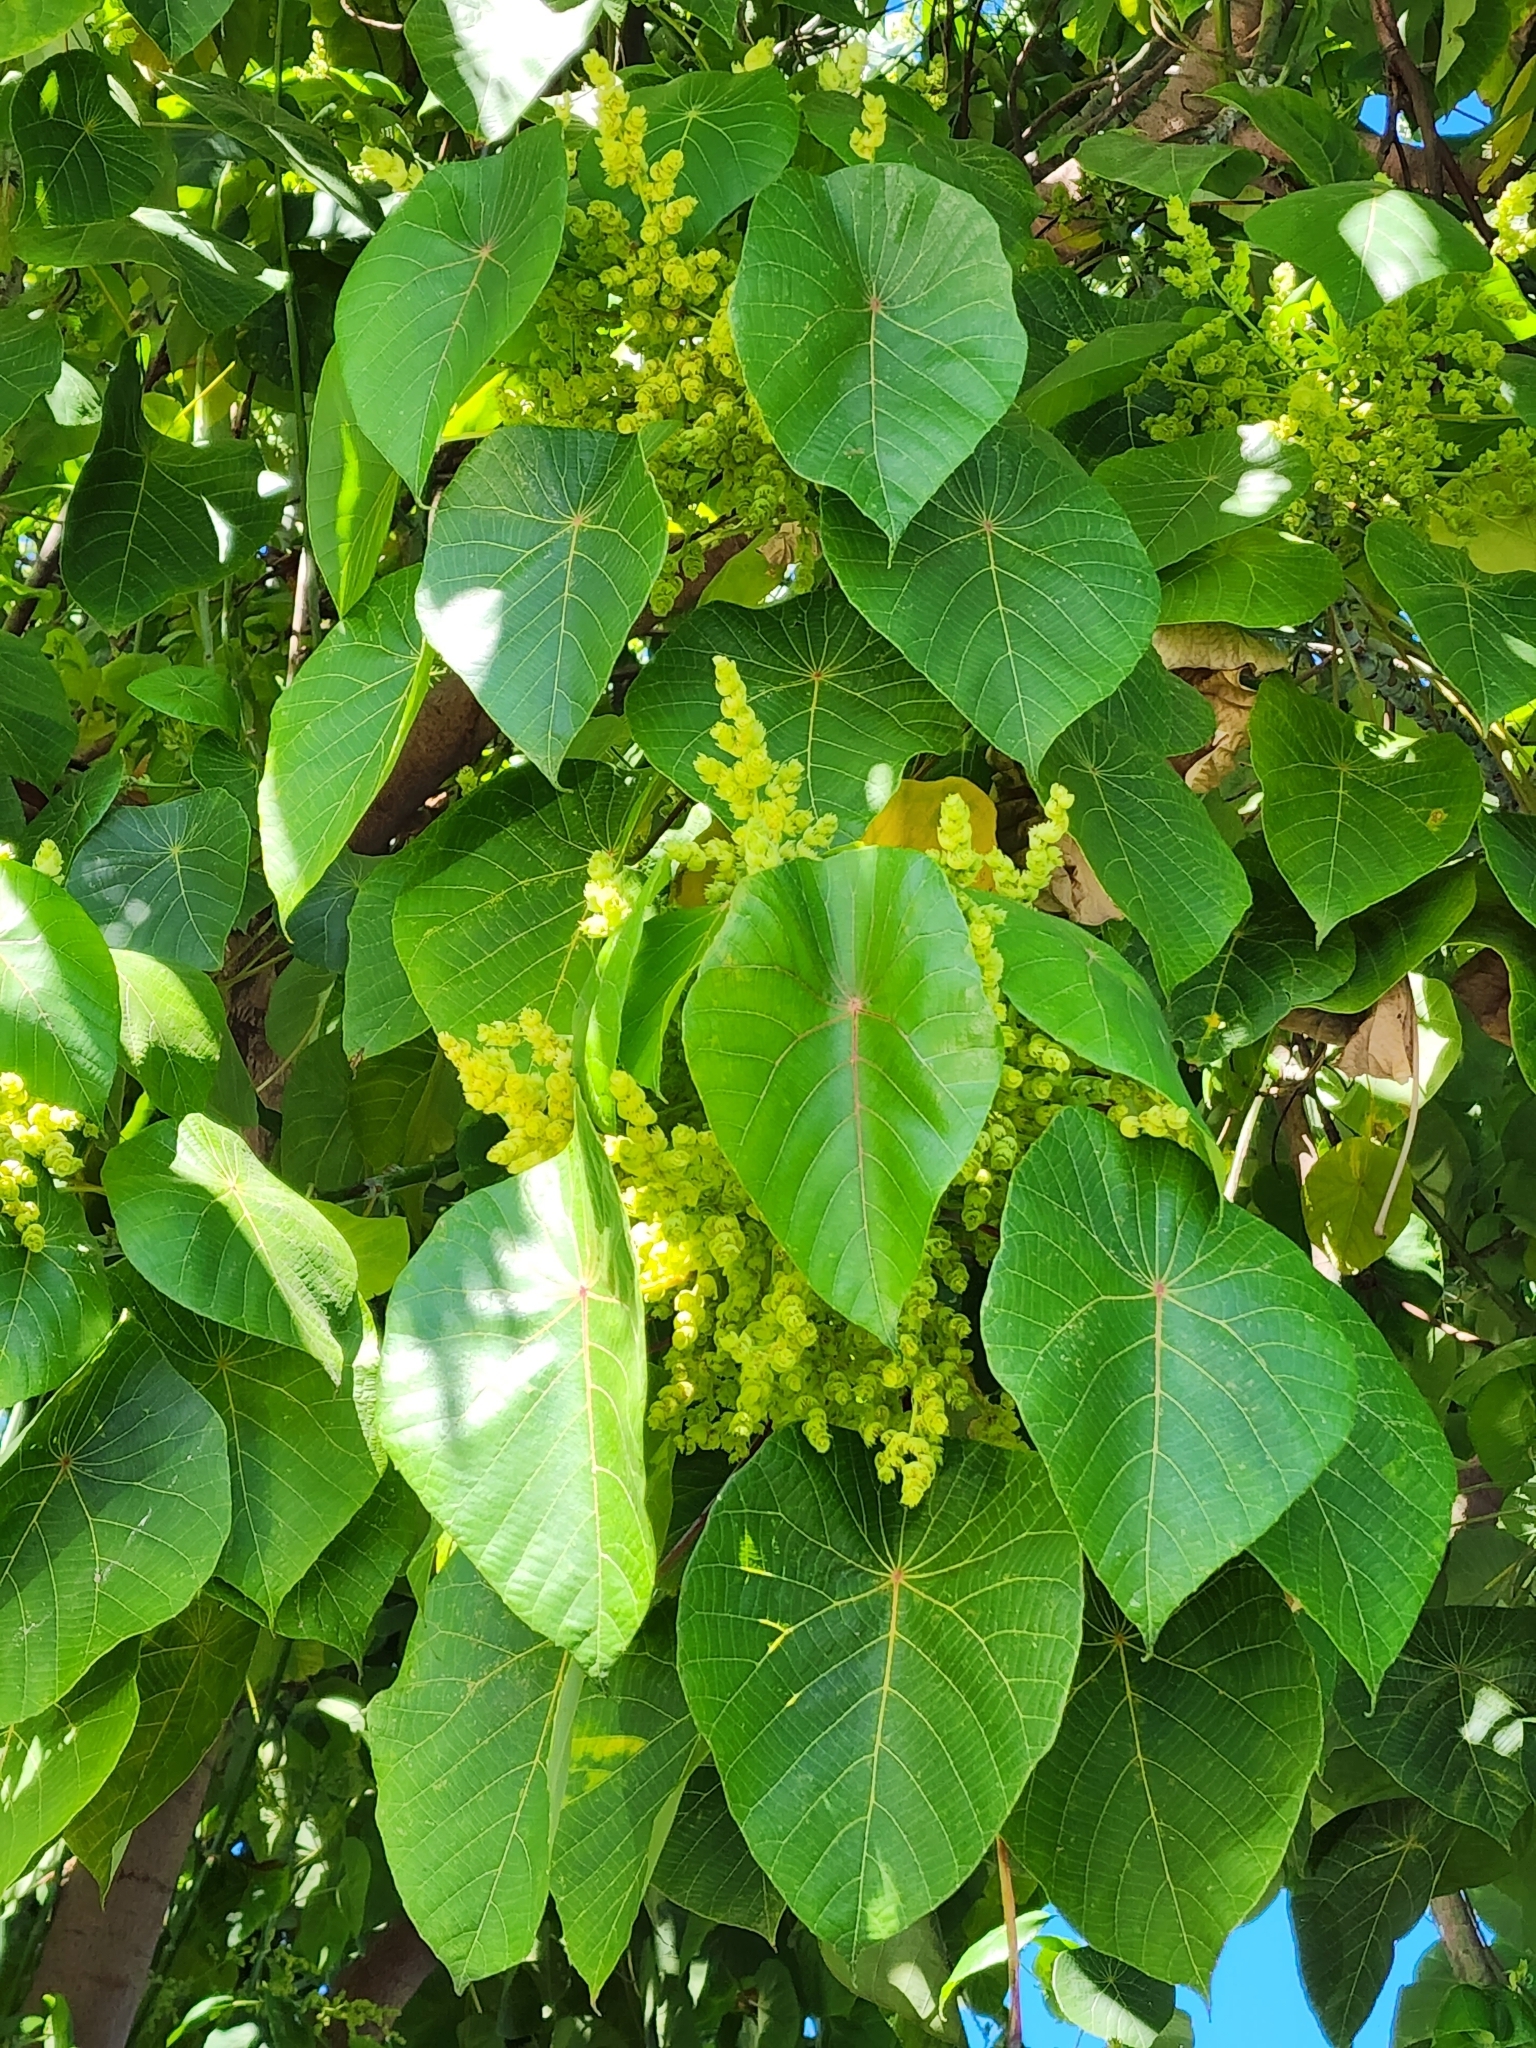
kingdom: Plantae
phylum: Tracheophyta
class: Magnoliopsida
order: Malpighiales
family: Euphorbiaceae
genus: Macaranga
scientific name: Macaranga tanarius
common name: Parasol leaf tree
